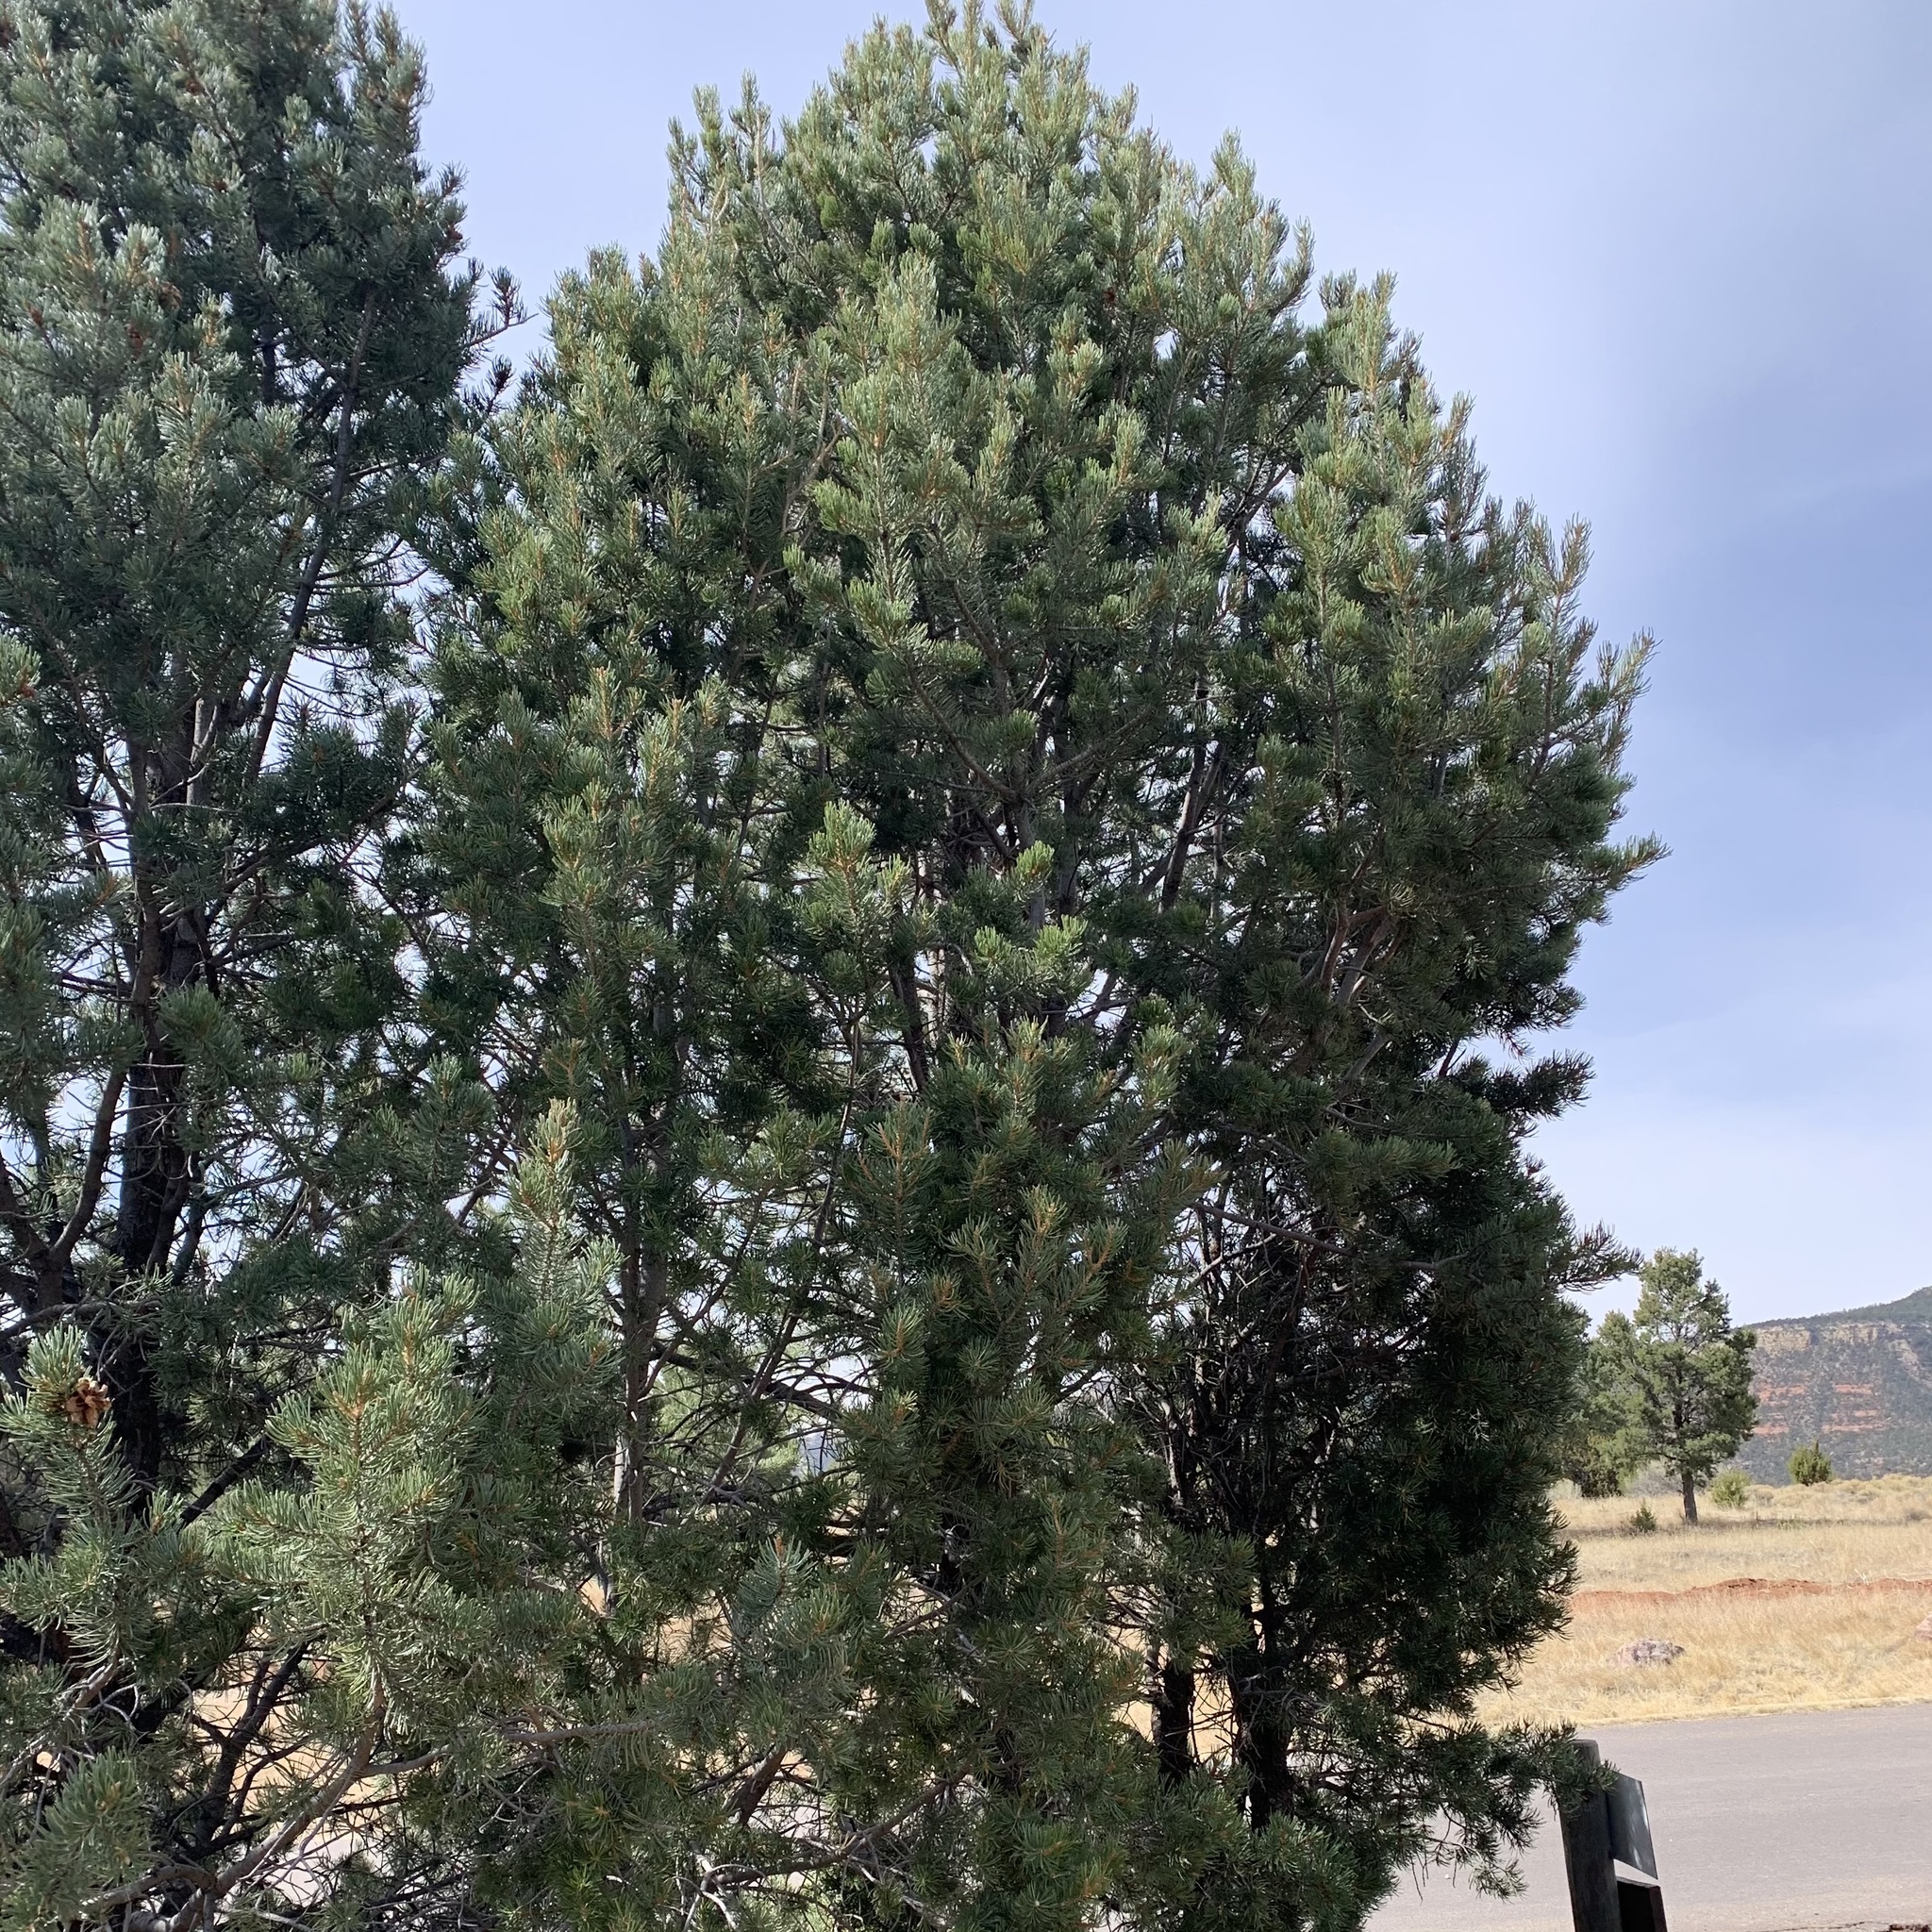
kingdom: Plantae
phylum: Tracheophyta
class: Pinopsida
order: Pinales
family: Pinaceae
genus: Pinus
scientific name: Pinus edulis
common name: Colorado pinyon
